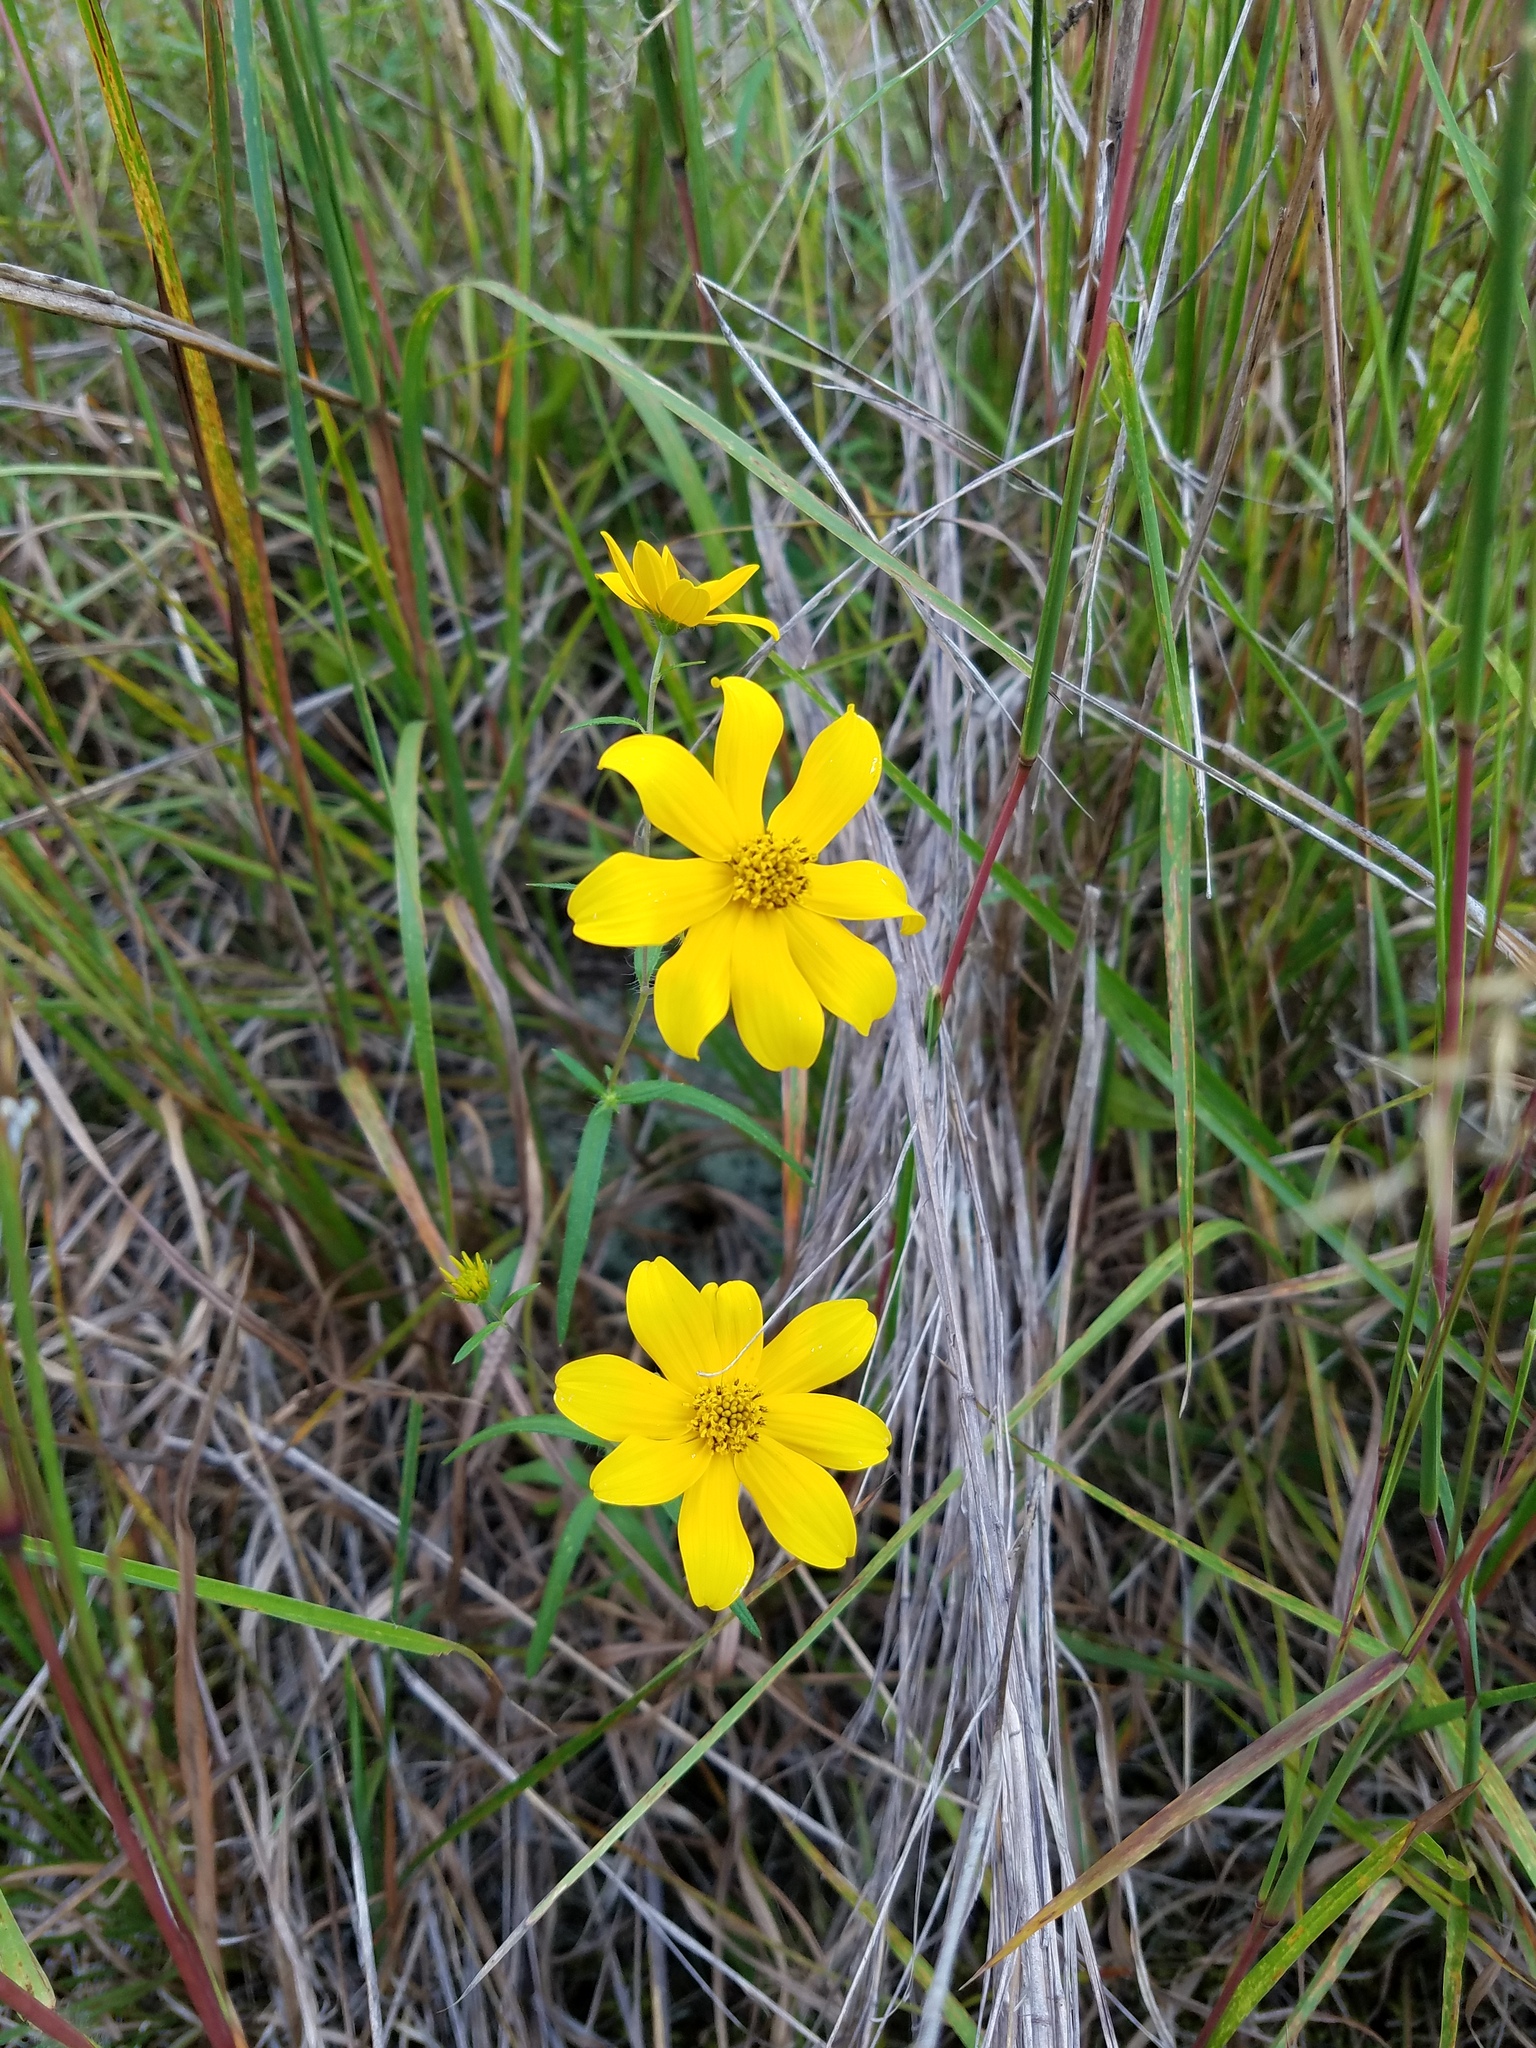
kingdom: Plantae
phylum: Tracheophyta
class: Magnoliopsida
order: Asterales
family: Asteraceae
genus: Helianthus
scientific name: Helianthus porteri
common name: Porter's sunflower
